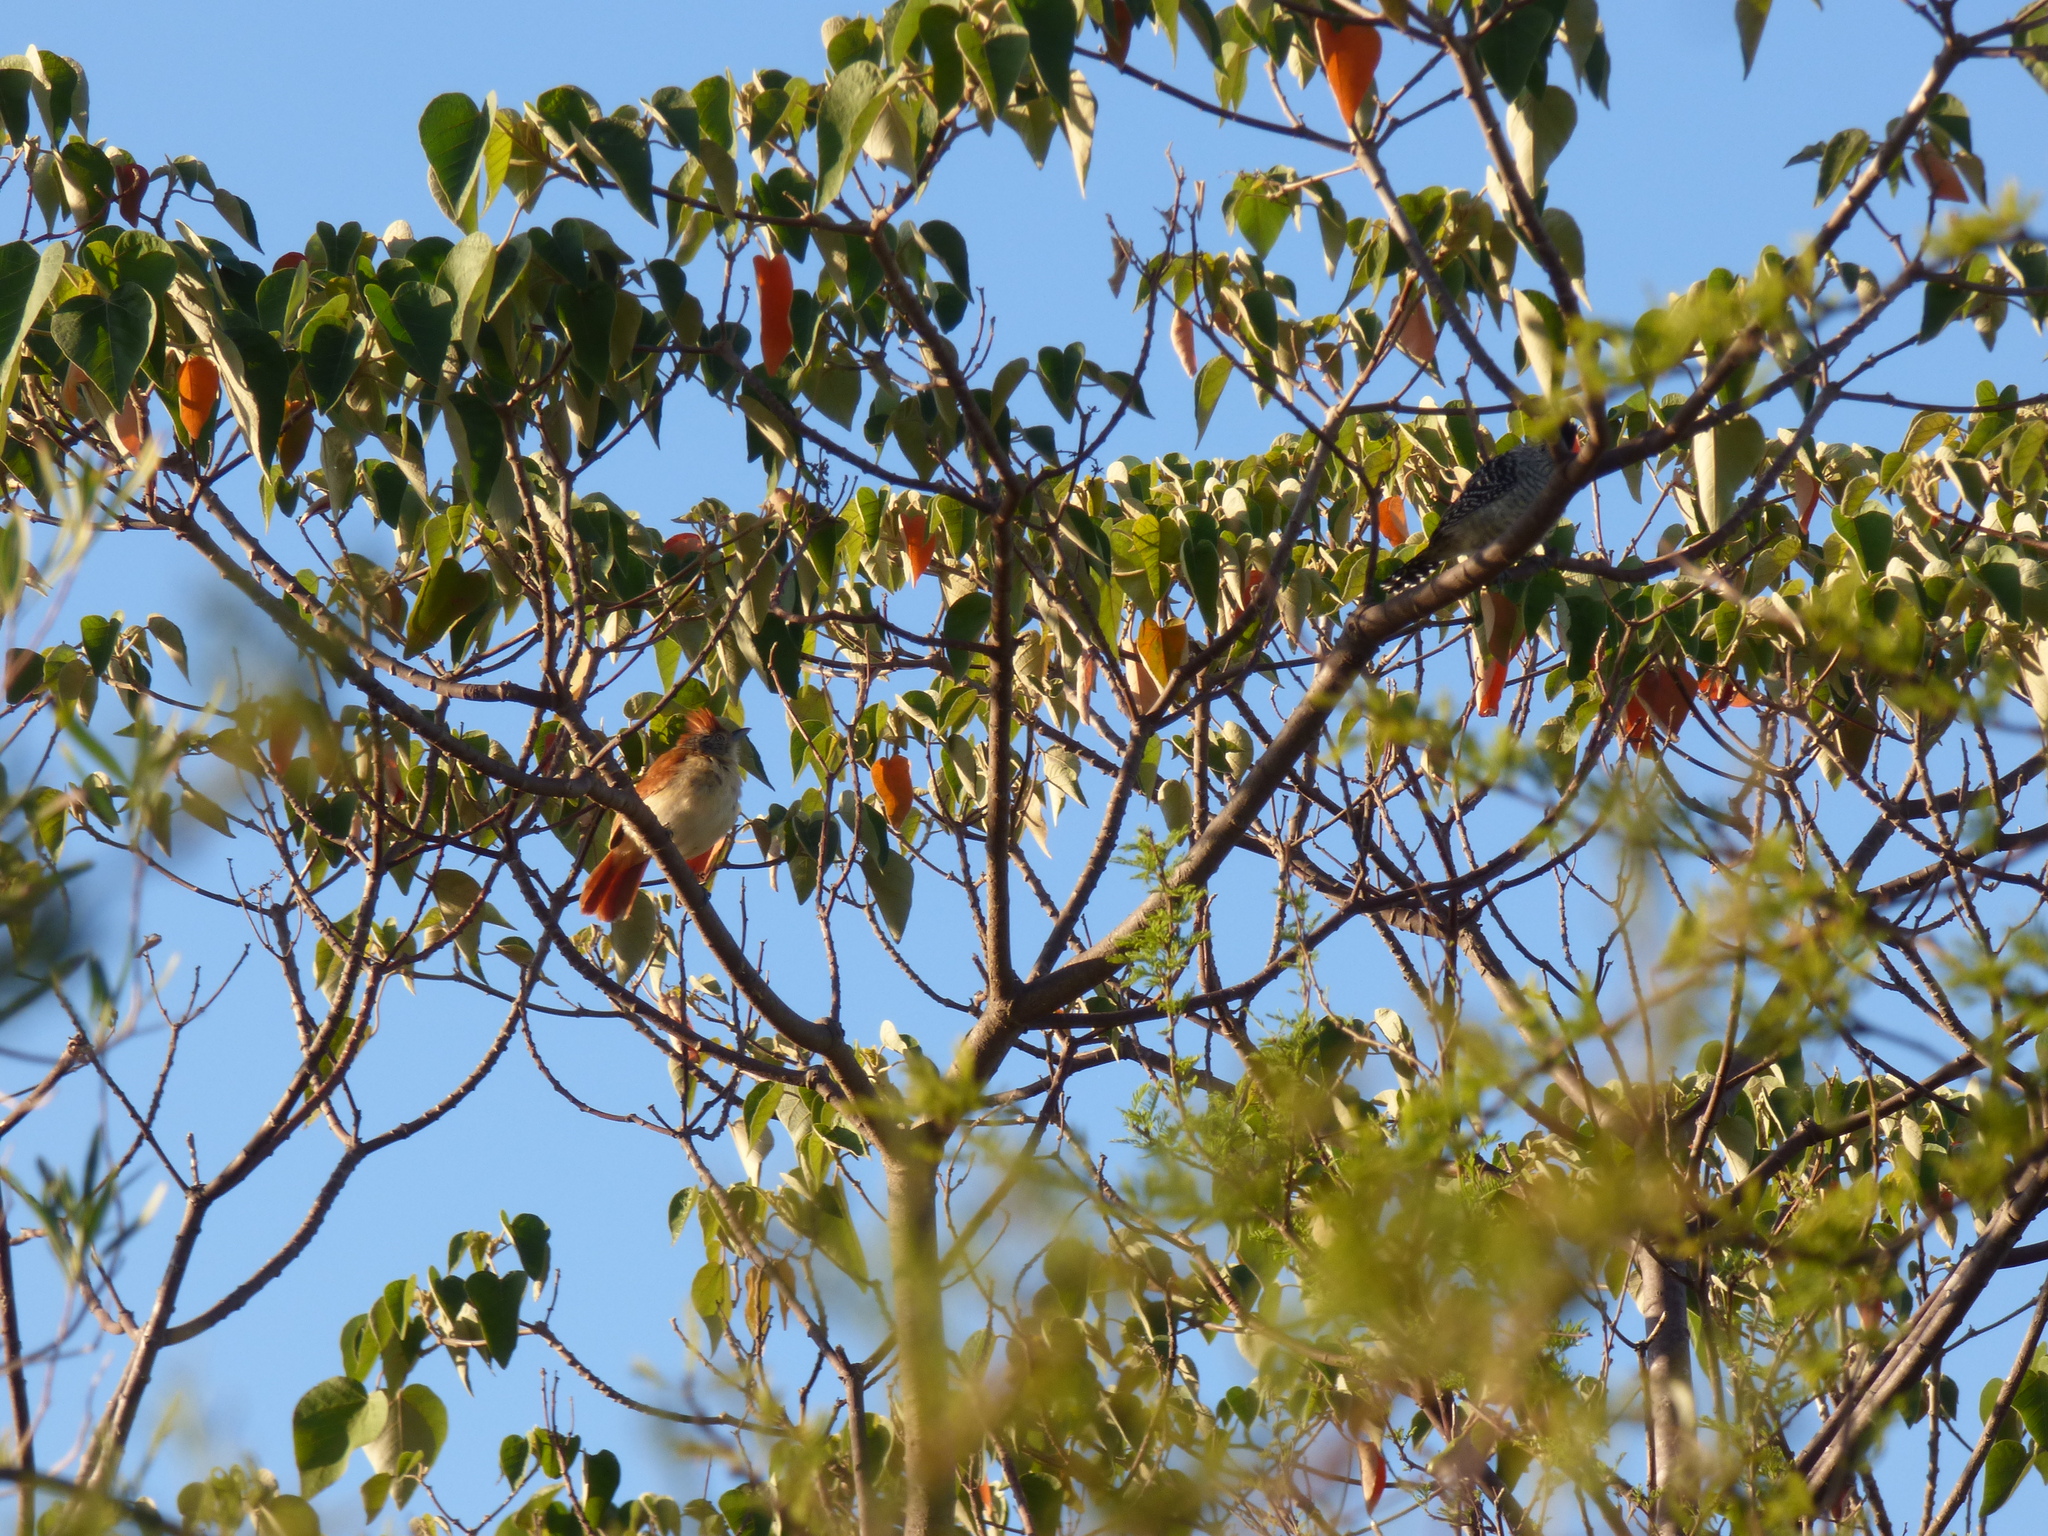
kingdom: Animalia
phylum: Chordata
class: Aves
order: Passeriformes
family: Thamnophilidae
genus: Thamnophilus
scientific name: Thamnophilus doliatus
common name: Barred antshrike
